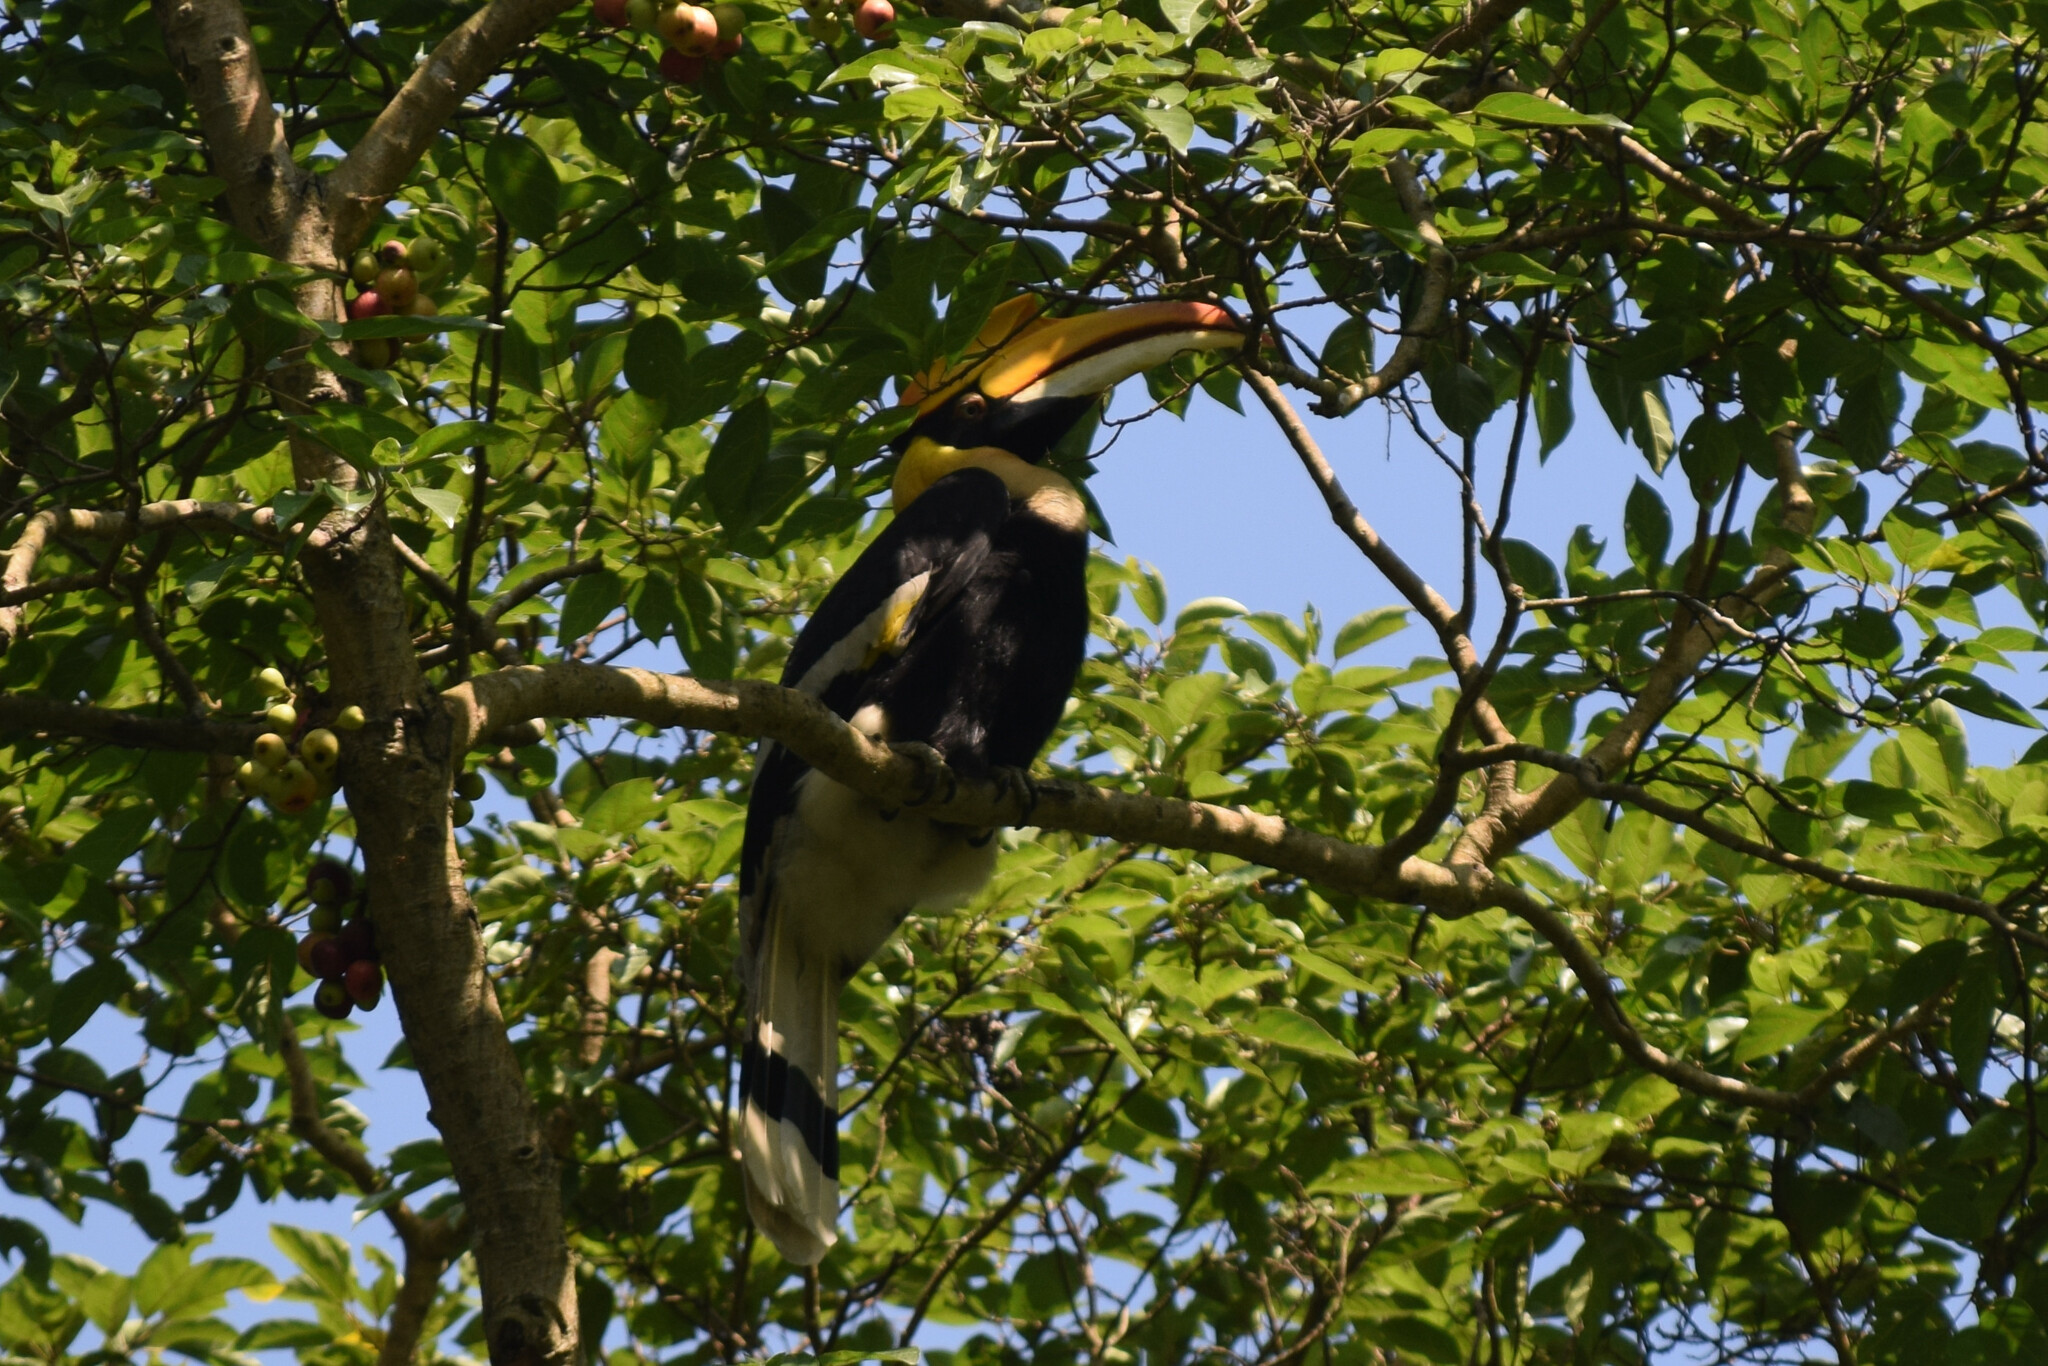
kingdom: Animalia
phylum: Chordata
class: Aves
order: Bucerotiformes
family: Bucerotidae
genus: Buceros
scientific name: Buceros bicornis
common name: Great hornbill
